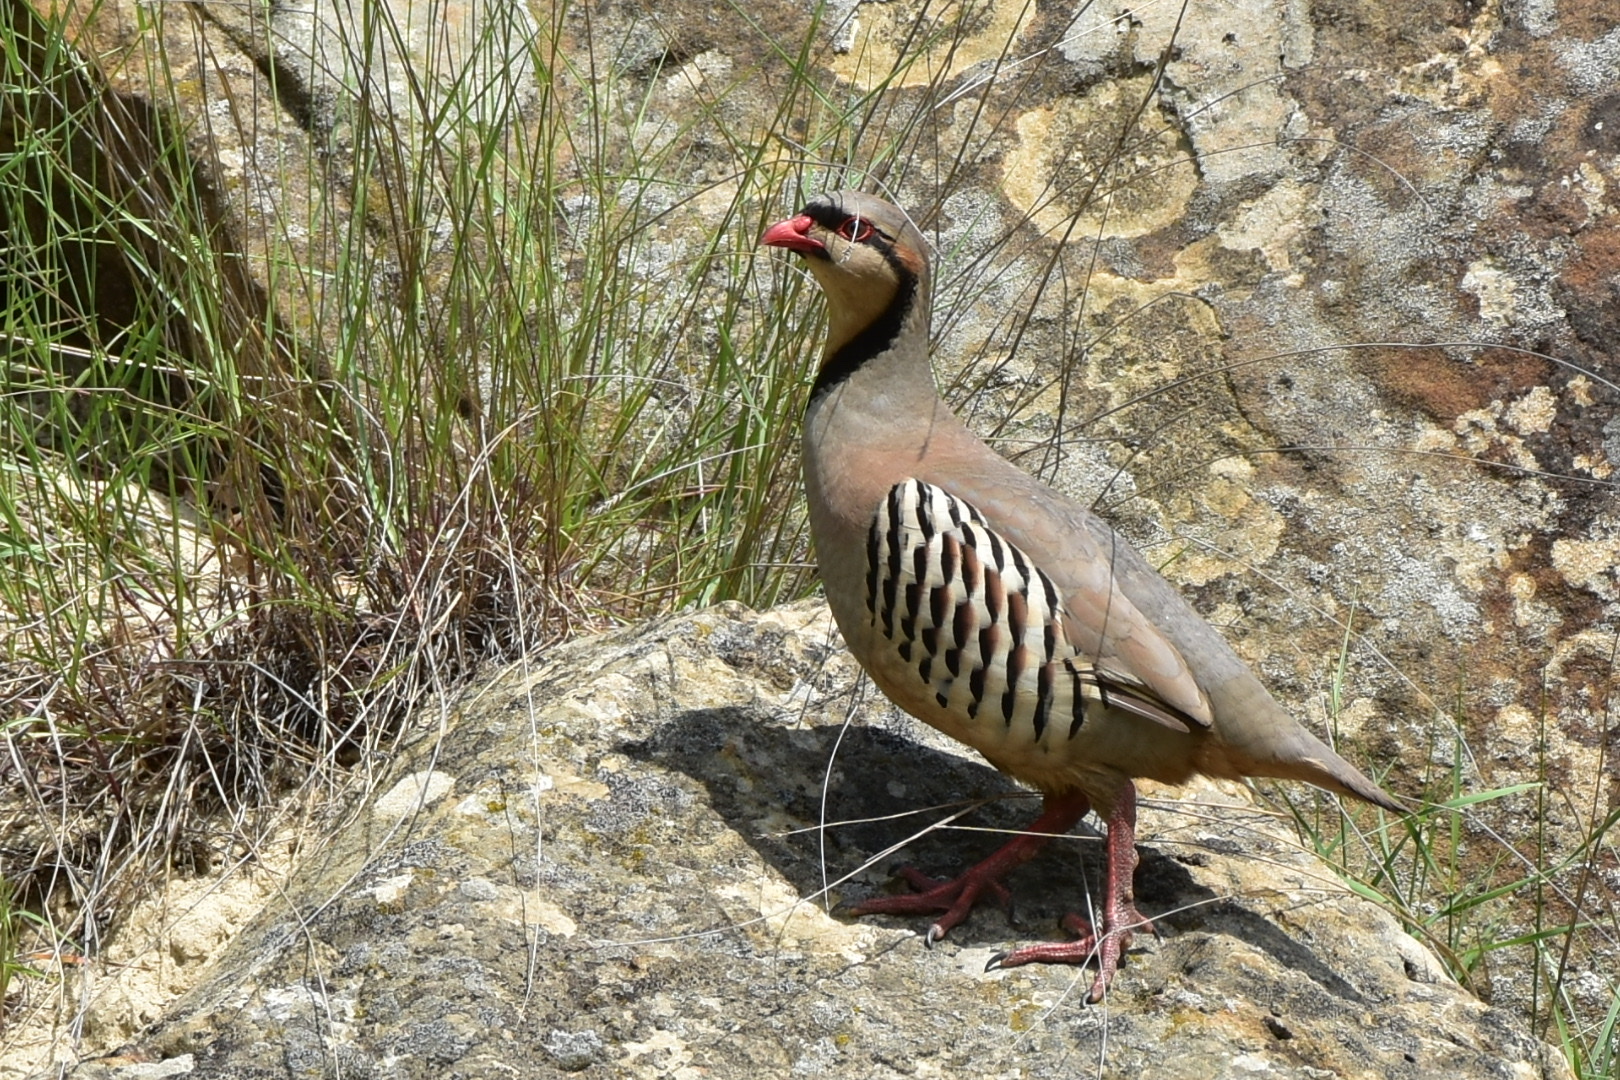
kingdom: Animalia
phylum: Chordata
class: Aves
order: Galliformes
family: Phasianidae
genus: Alectoris
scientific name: Alectoris chukar
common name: Chukar
